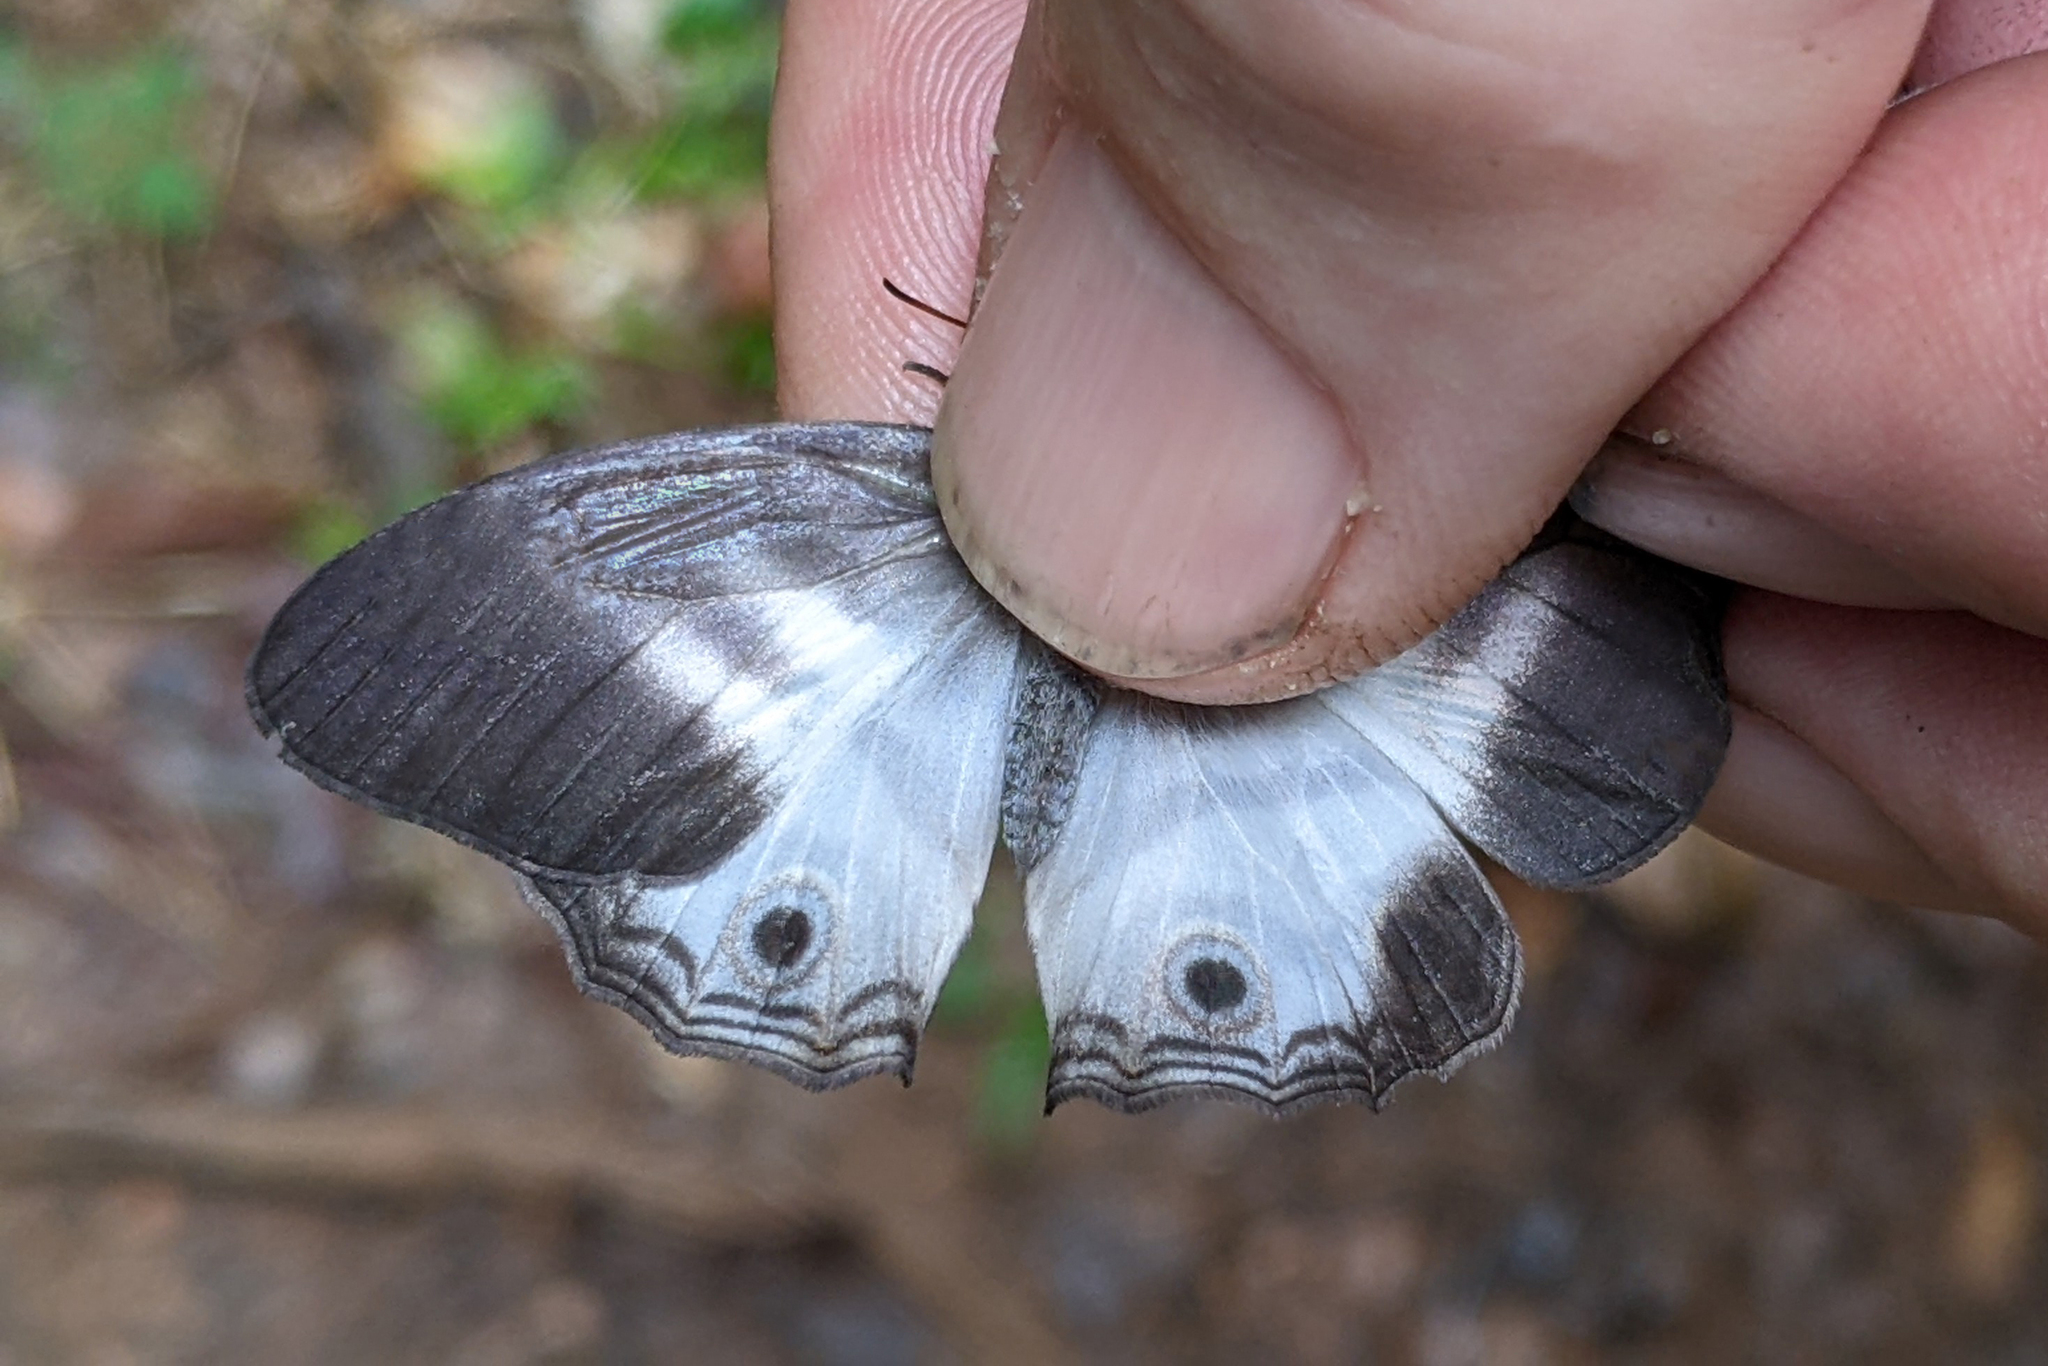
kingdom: Animalia
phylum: Arthropoda
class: Insecta
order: Lepidoptera
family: Nymphalidae
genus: Pareuptychia
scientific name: Pareuptychia hesione
